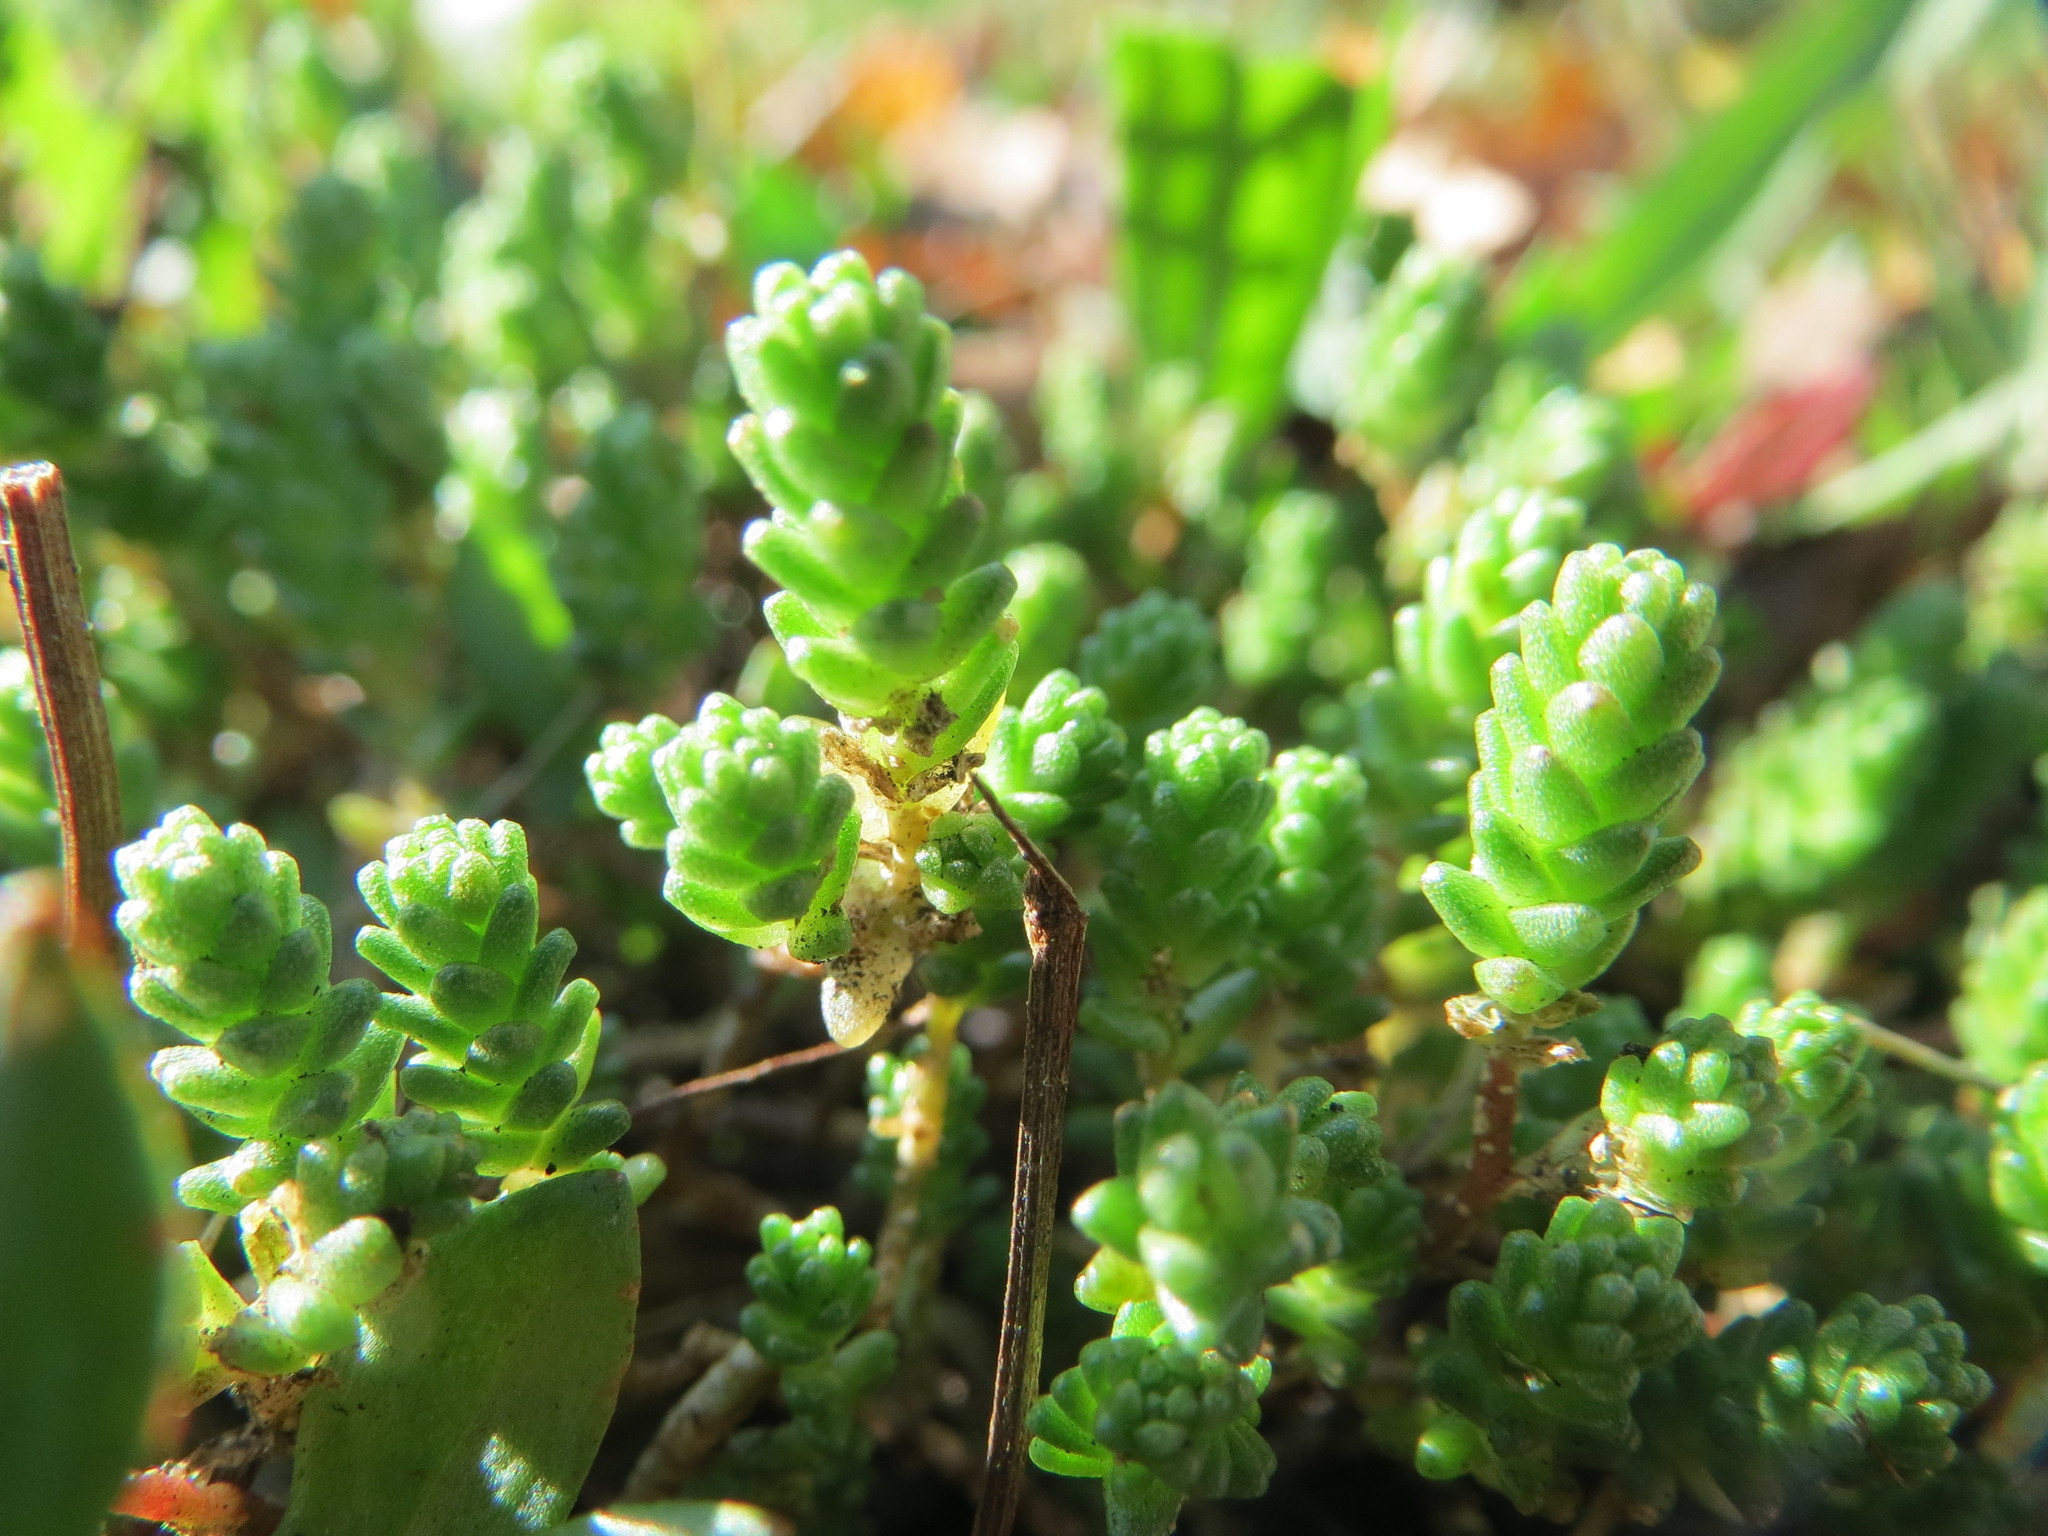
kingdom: Plantae
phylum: Tracheophyta
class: Magnoliopsida
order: Saxifragales
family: Crassulaceae
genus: Sedum
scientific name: Sedum acre
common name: Biting stonecrop
